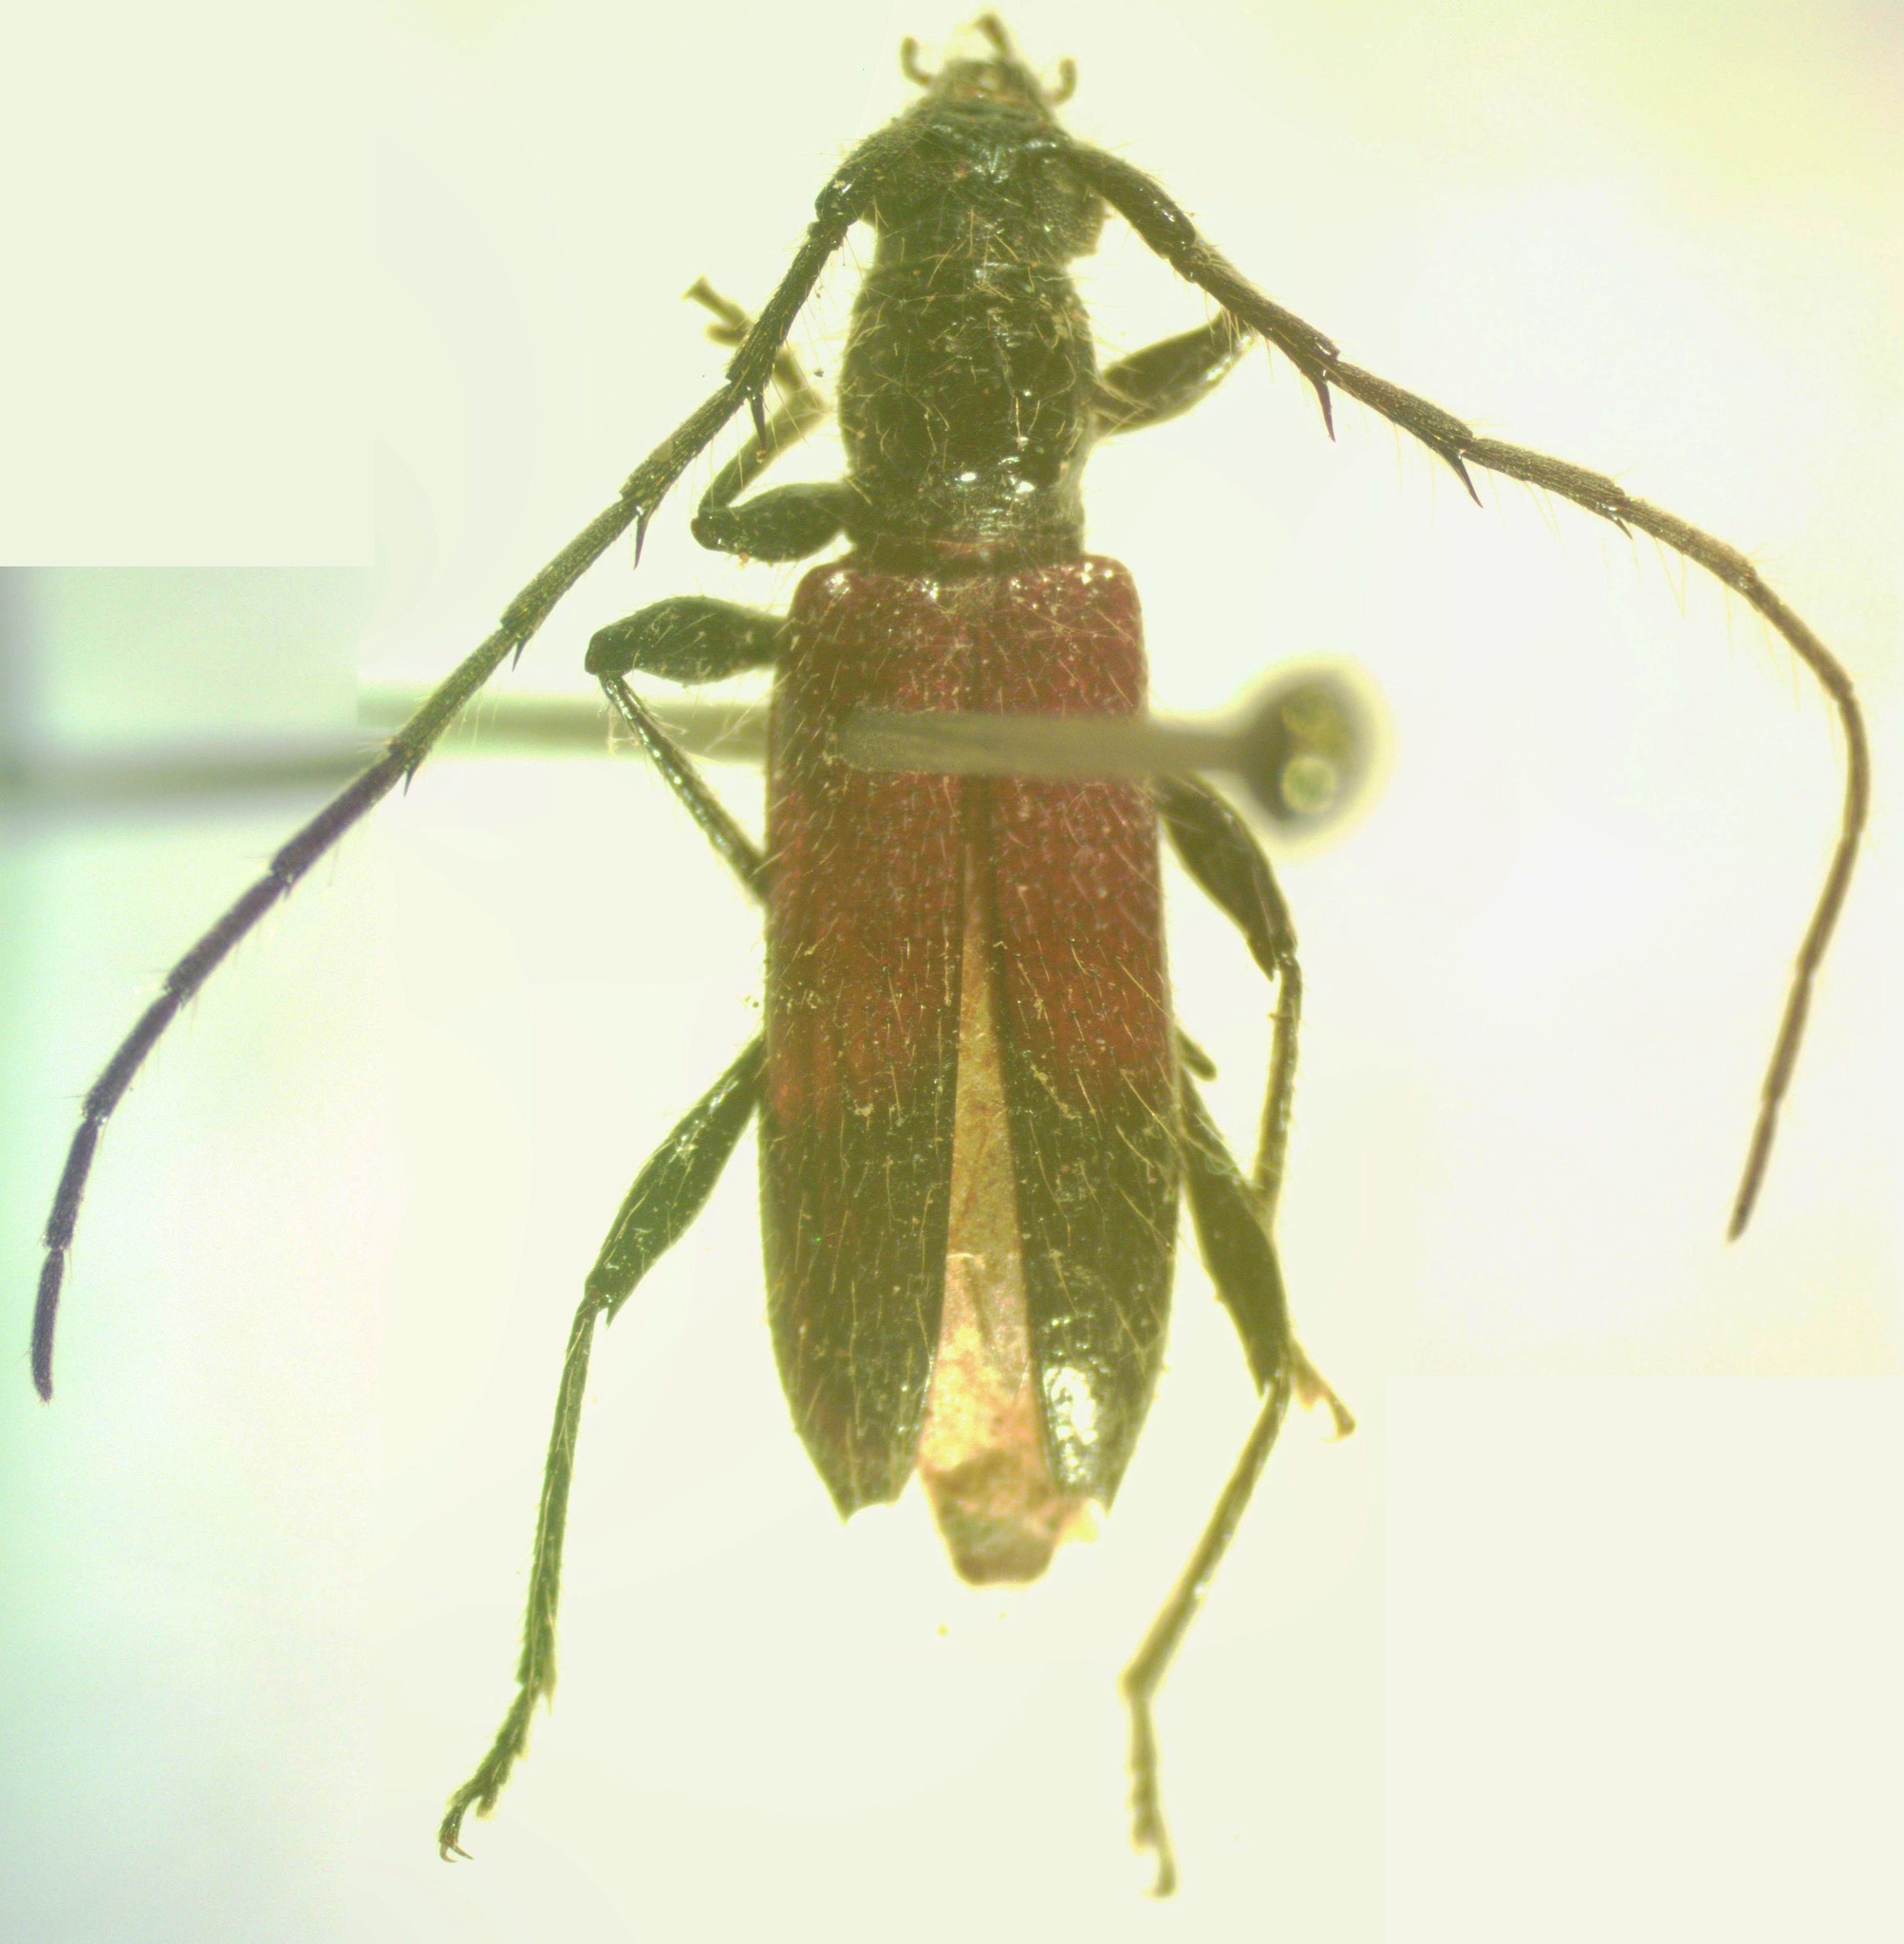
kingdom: Animalia
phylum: Arthropoda
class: Insecta
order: Coleoptera
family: Cerambycidae
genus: Stizocera
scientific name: Stizocera rugicollis
